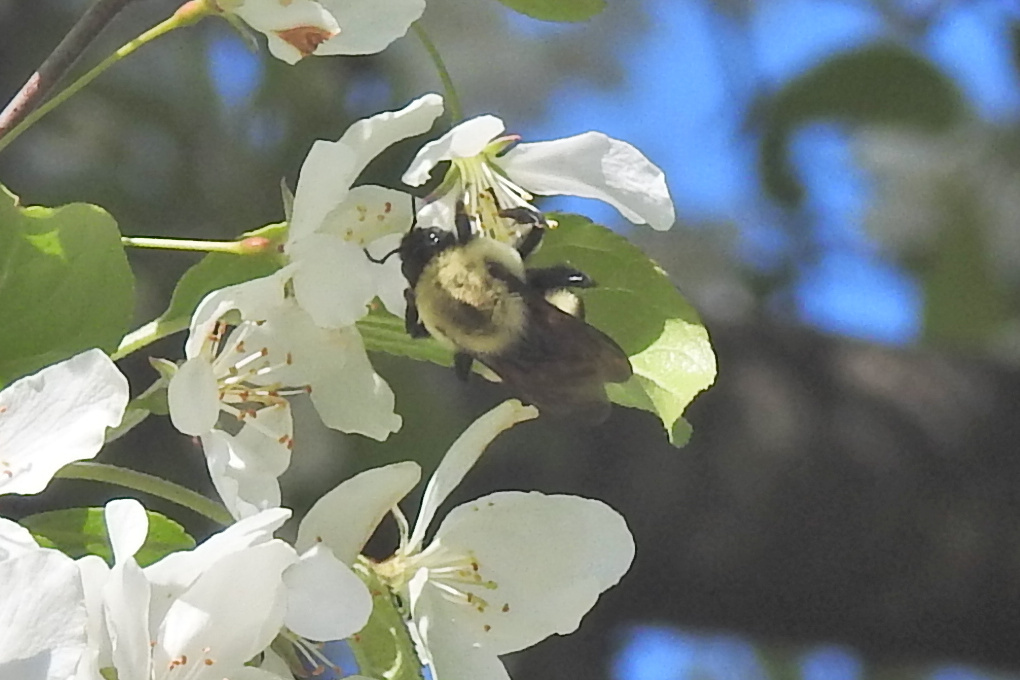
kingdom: Animalia
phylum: Arthropoda
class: Insecta
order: Hymenoptera
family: Apidae
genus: Bombus
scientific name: Bombus griseocollis
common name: Brown-belted bumble bee
